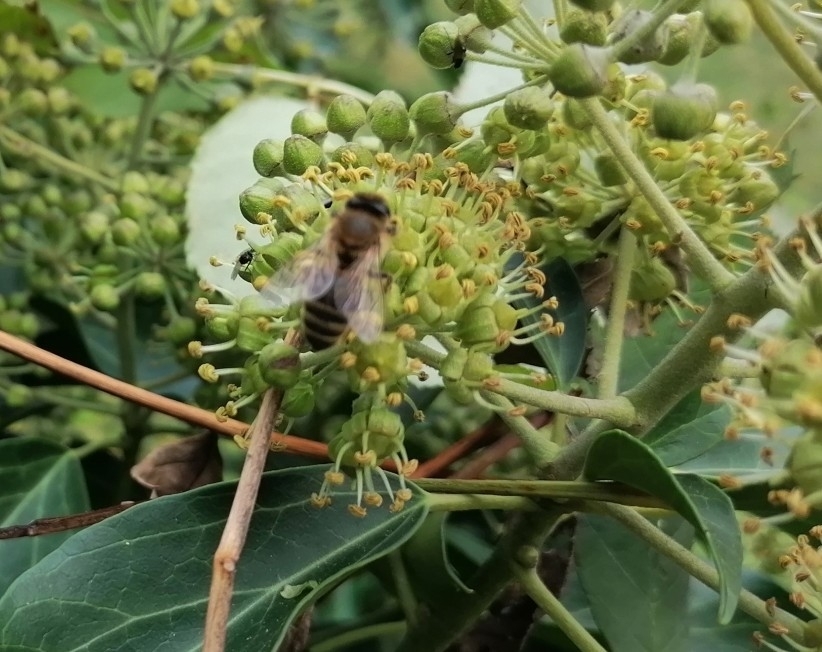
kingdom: Animalia
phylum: Arthropoda
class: Insecta
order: Hymenoptera
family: Apidae
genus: Apis
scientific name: Apis mellifera
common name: Honey bee
